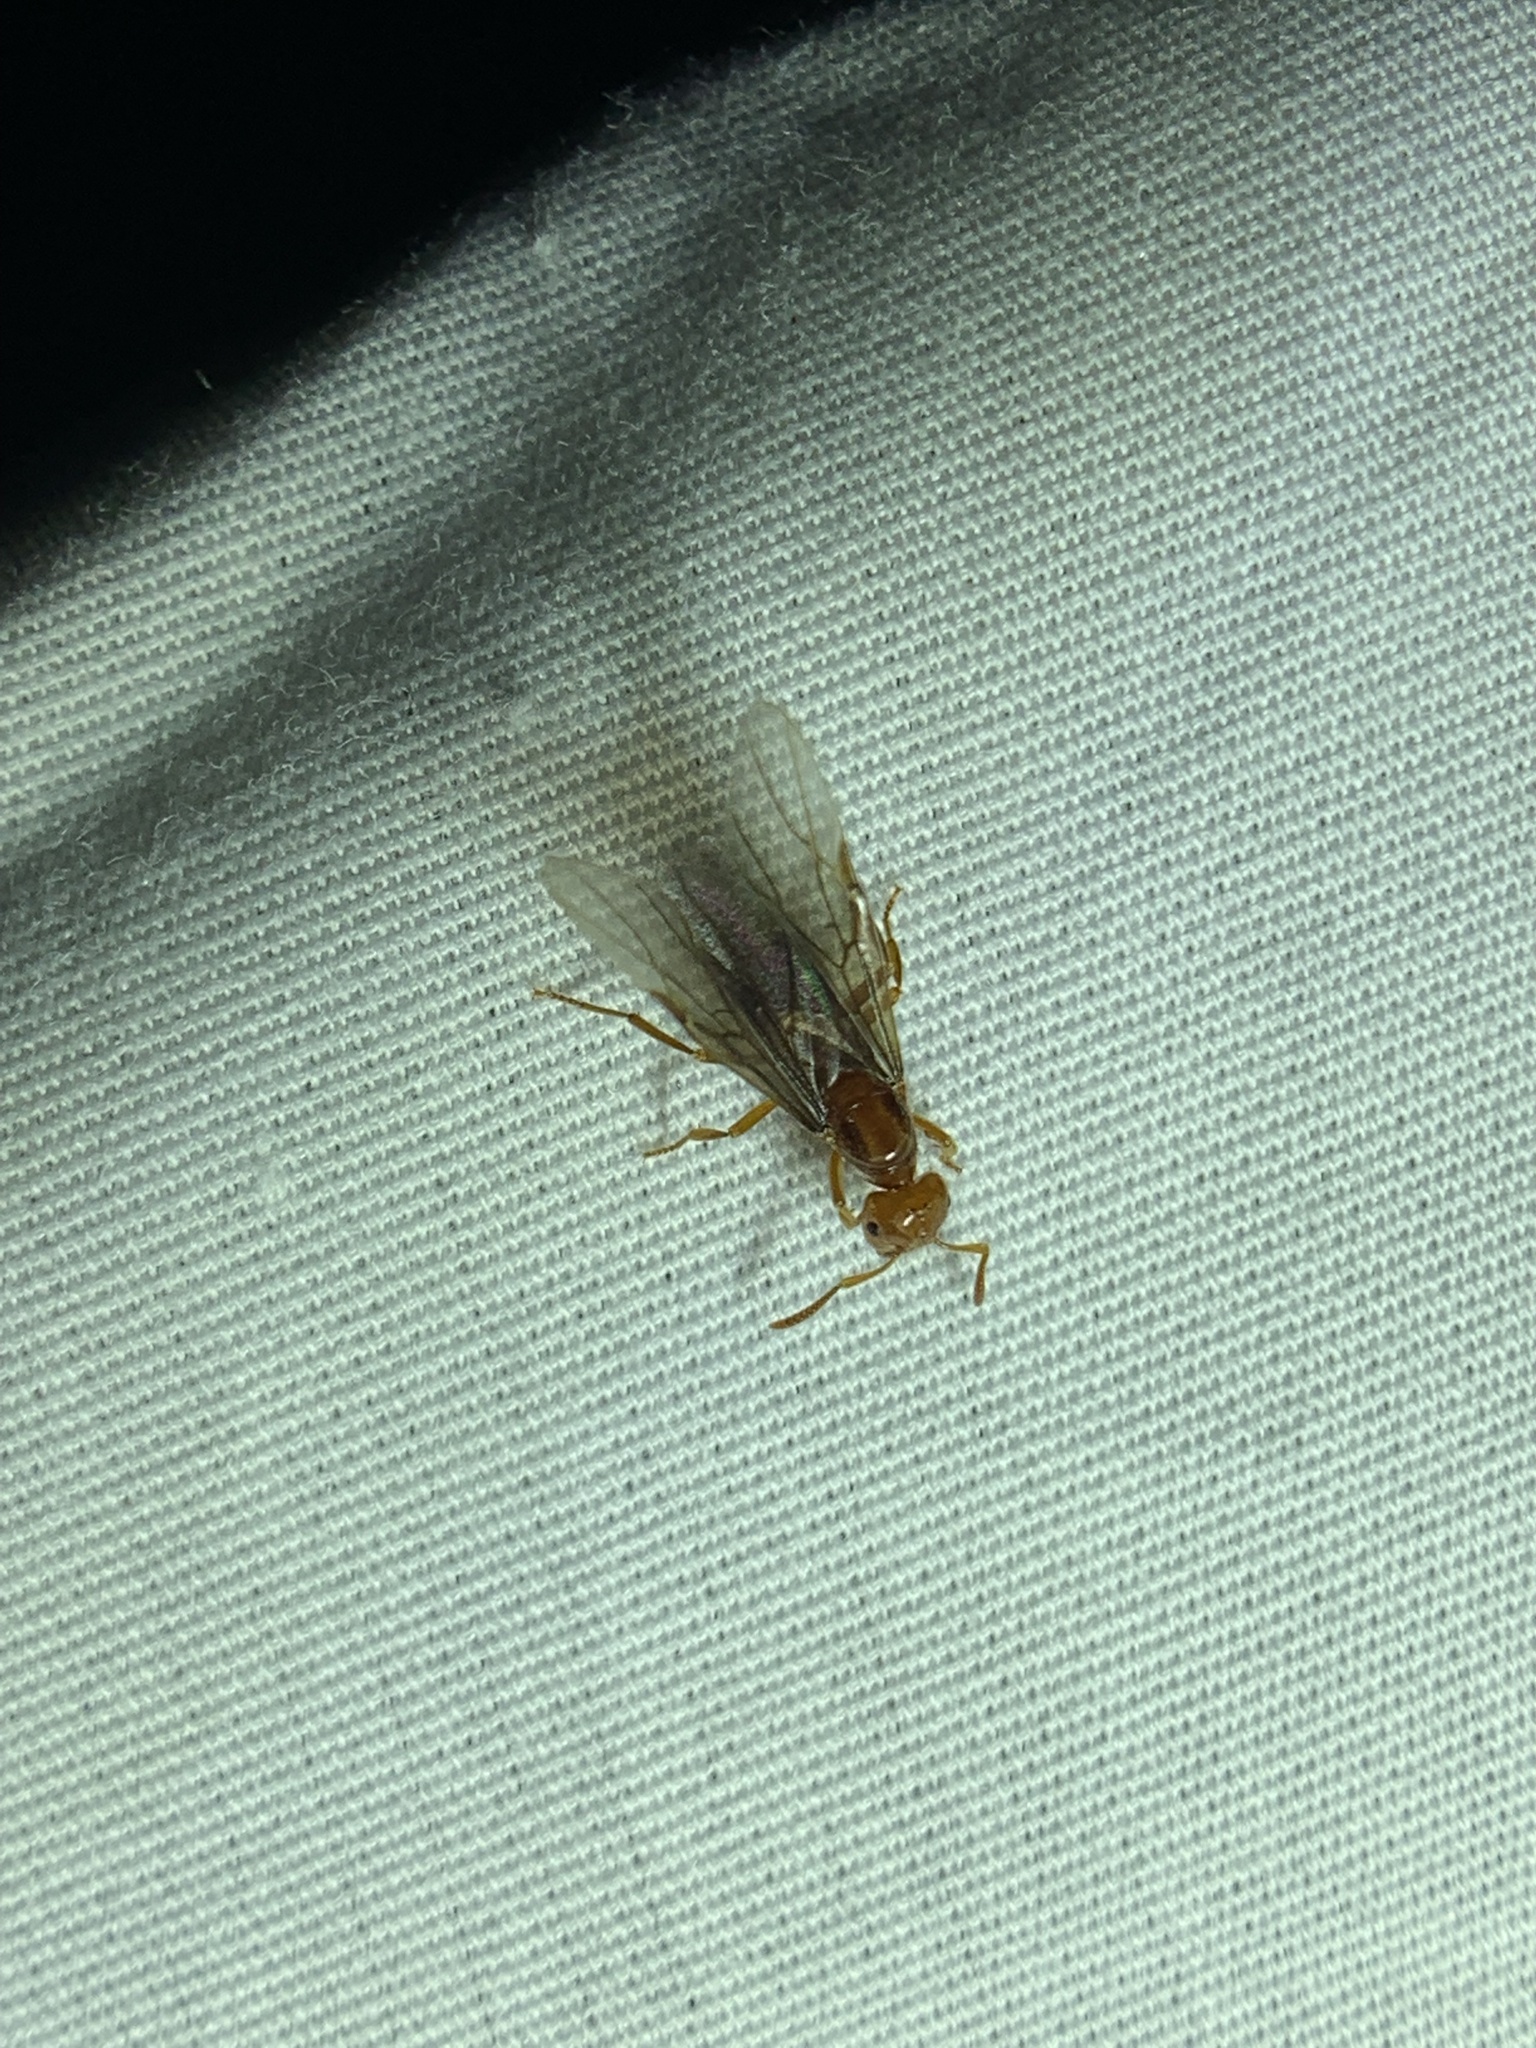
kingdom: Animalia
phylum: Arthropoda
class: Insecta
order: Hymenoptera
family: Formicidae
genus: Acanthomyops
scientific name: Acanthomyops interjectus
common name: Larger yellow ant
